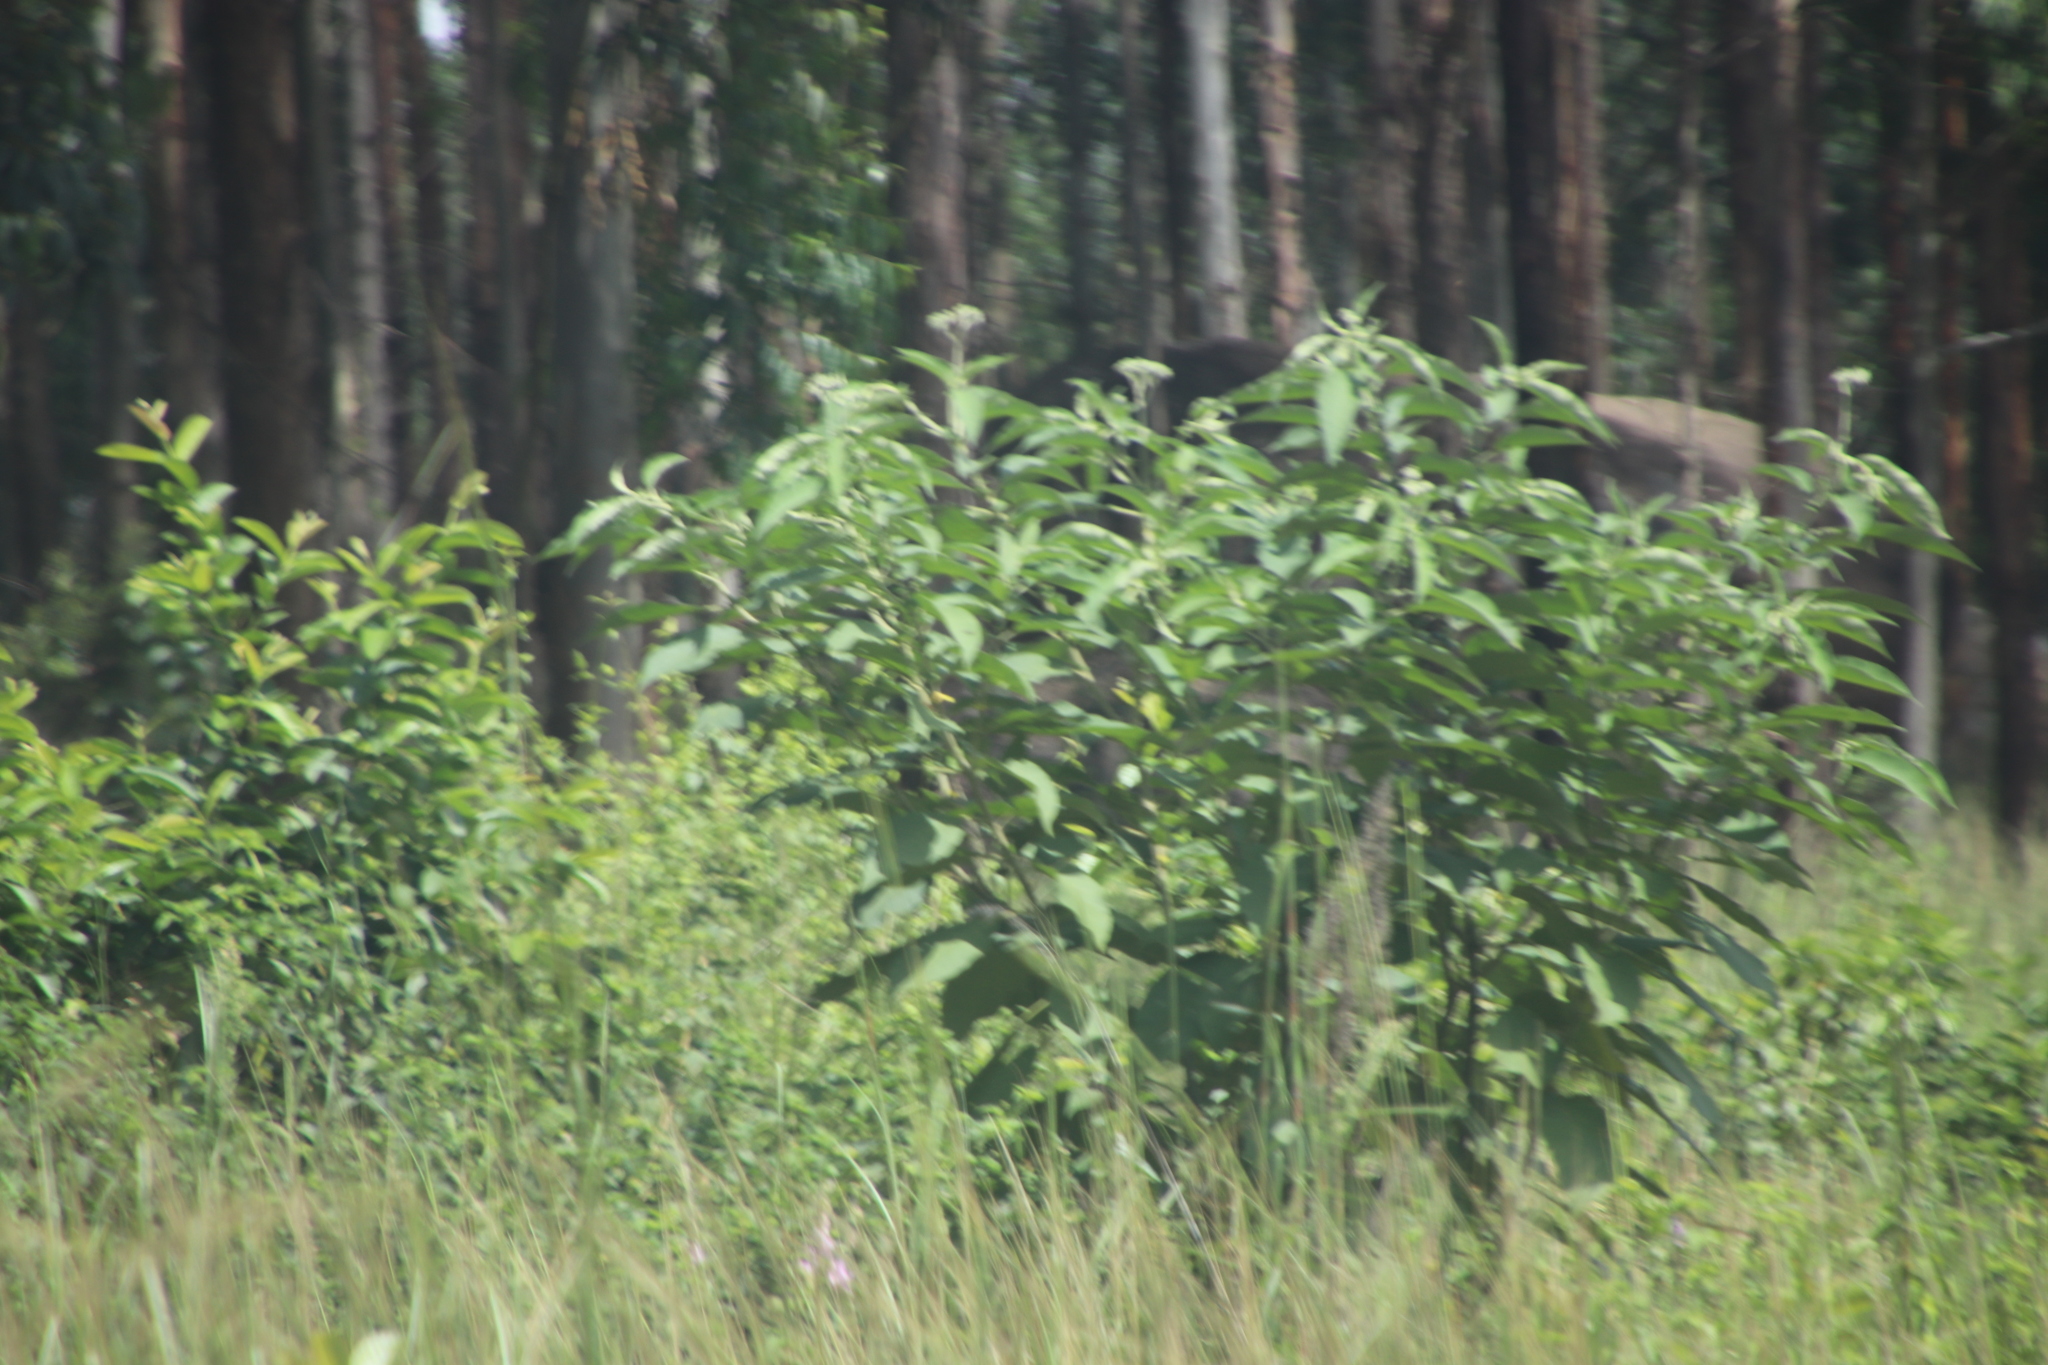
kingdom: Plantae
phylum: Tracheophyta
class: Magnoliopsida
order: Solanales
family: Solanaceae
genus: Solanum
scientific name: Solanum mauritianum
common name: Earleaf nightshade
